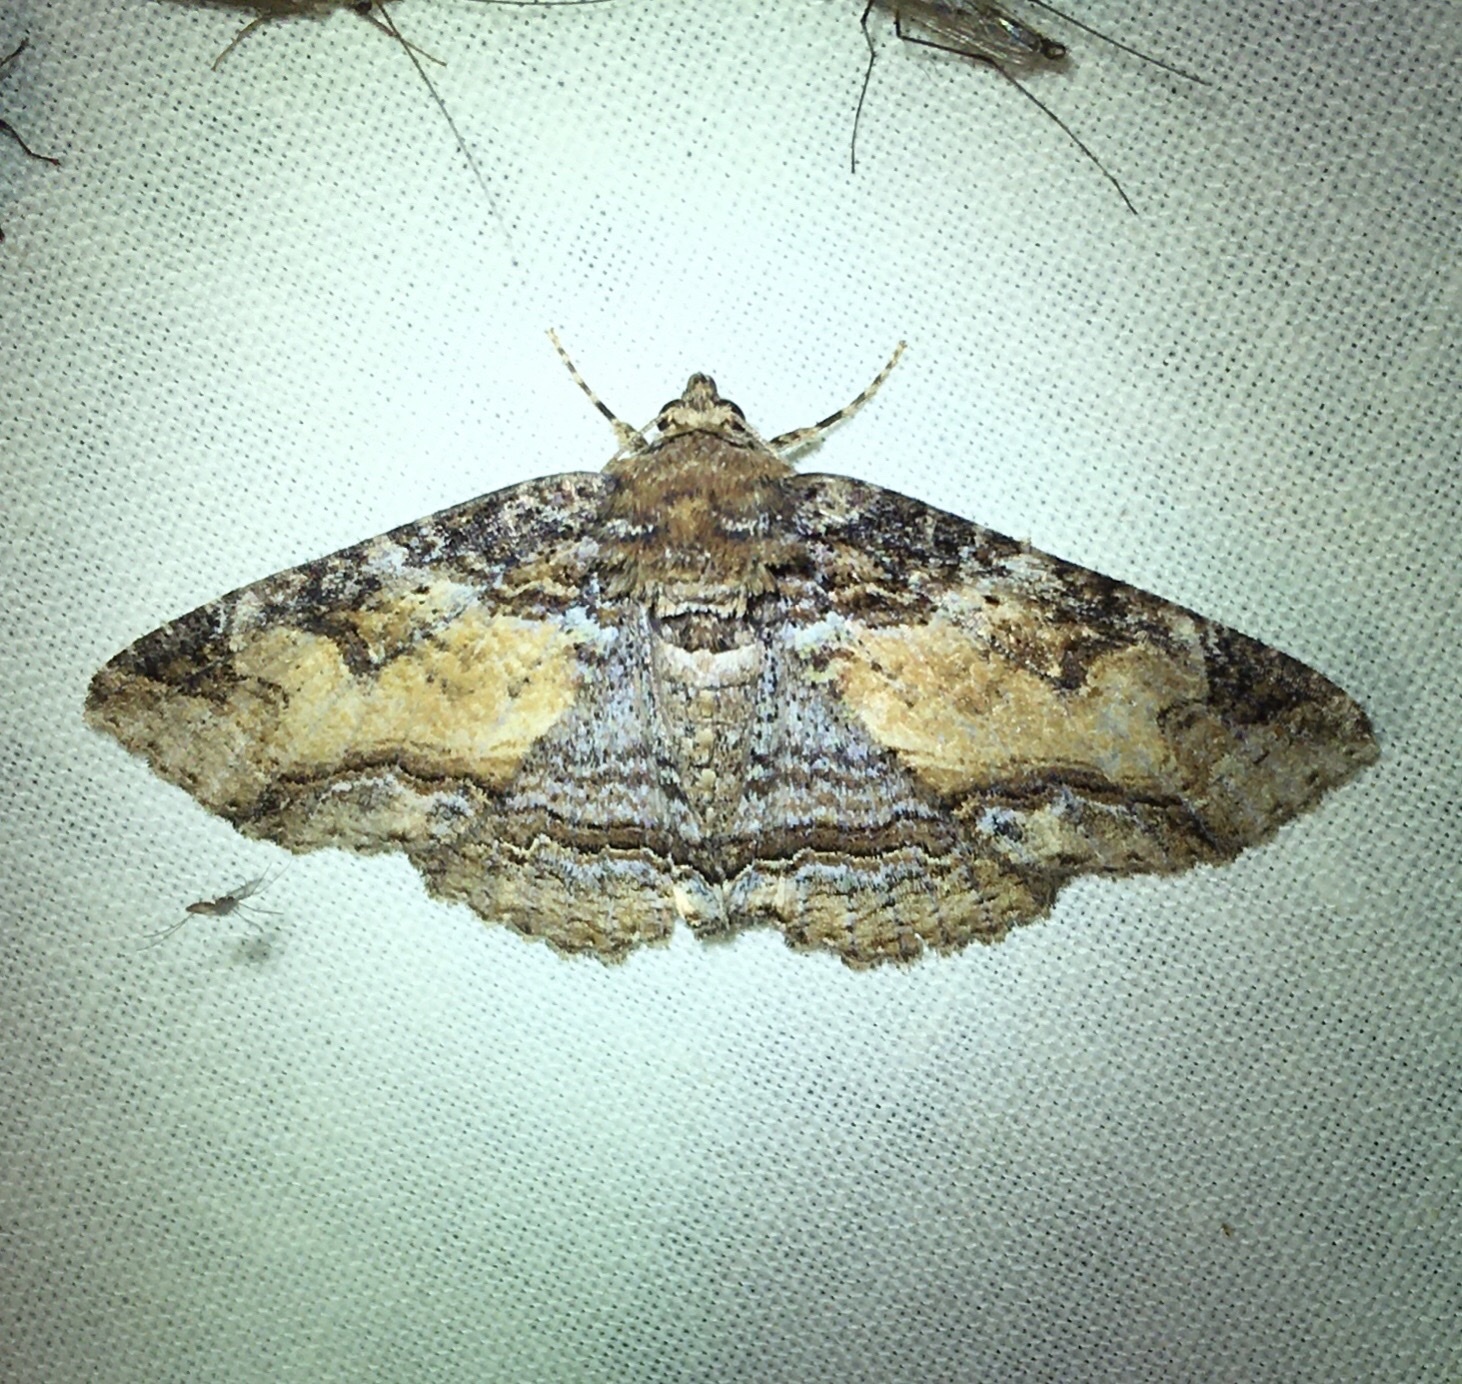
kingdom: Animalia
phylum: Arthropoda
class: Insecta
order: Lepidoptera
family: Erebidae
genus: Zale
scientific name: Zale minerea
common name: Colorful zale moth
